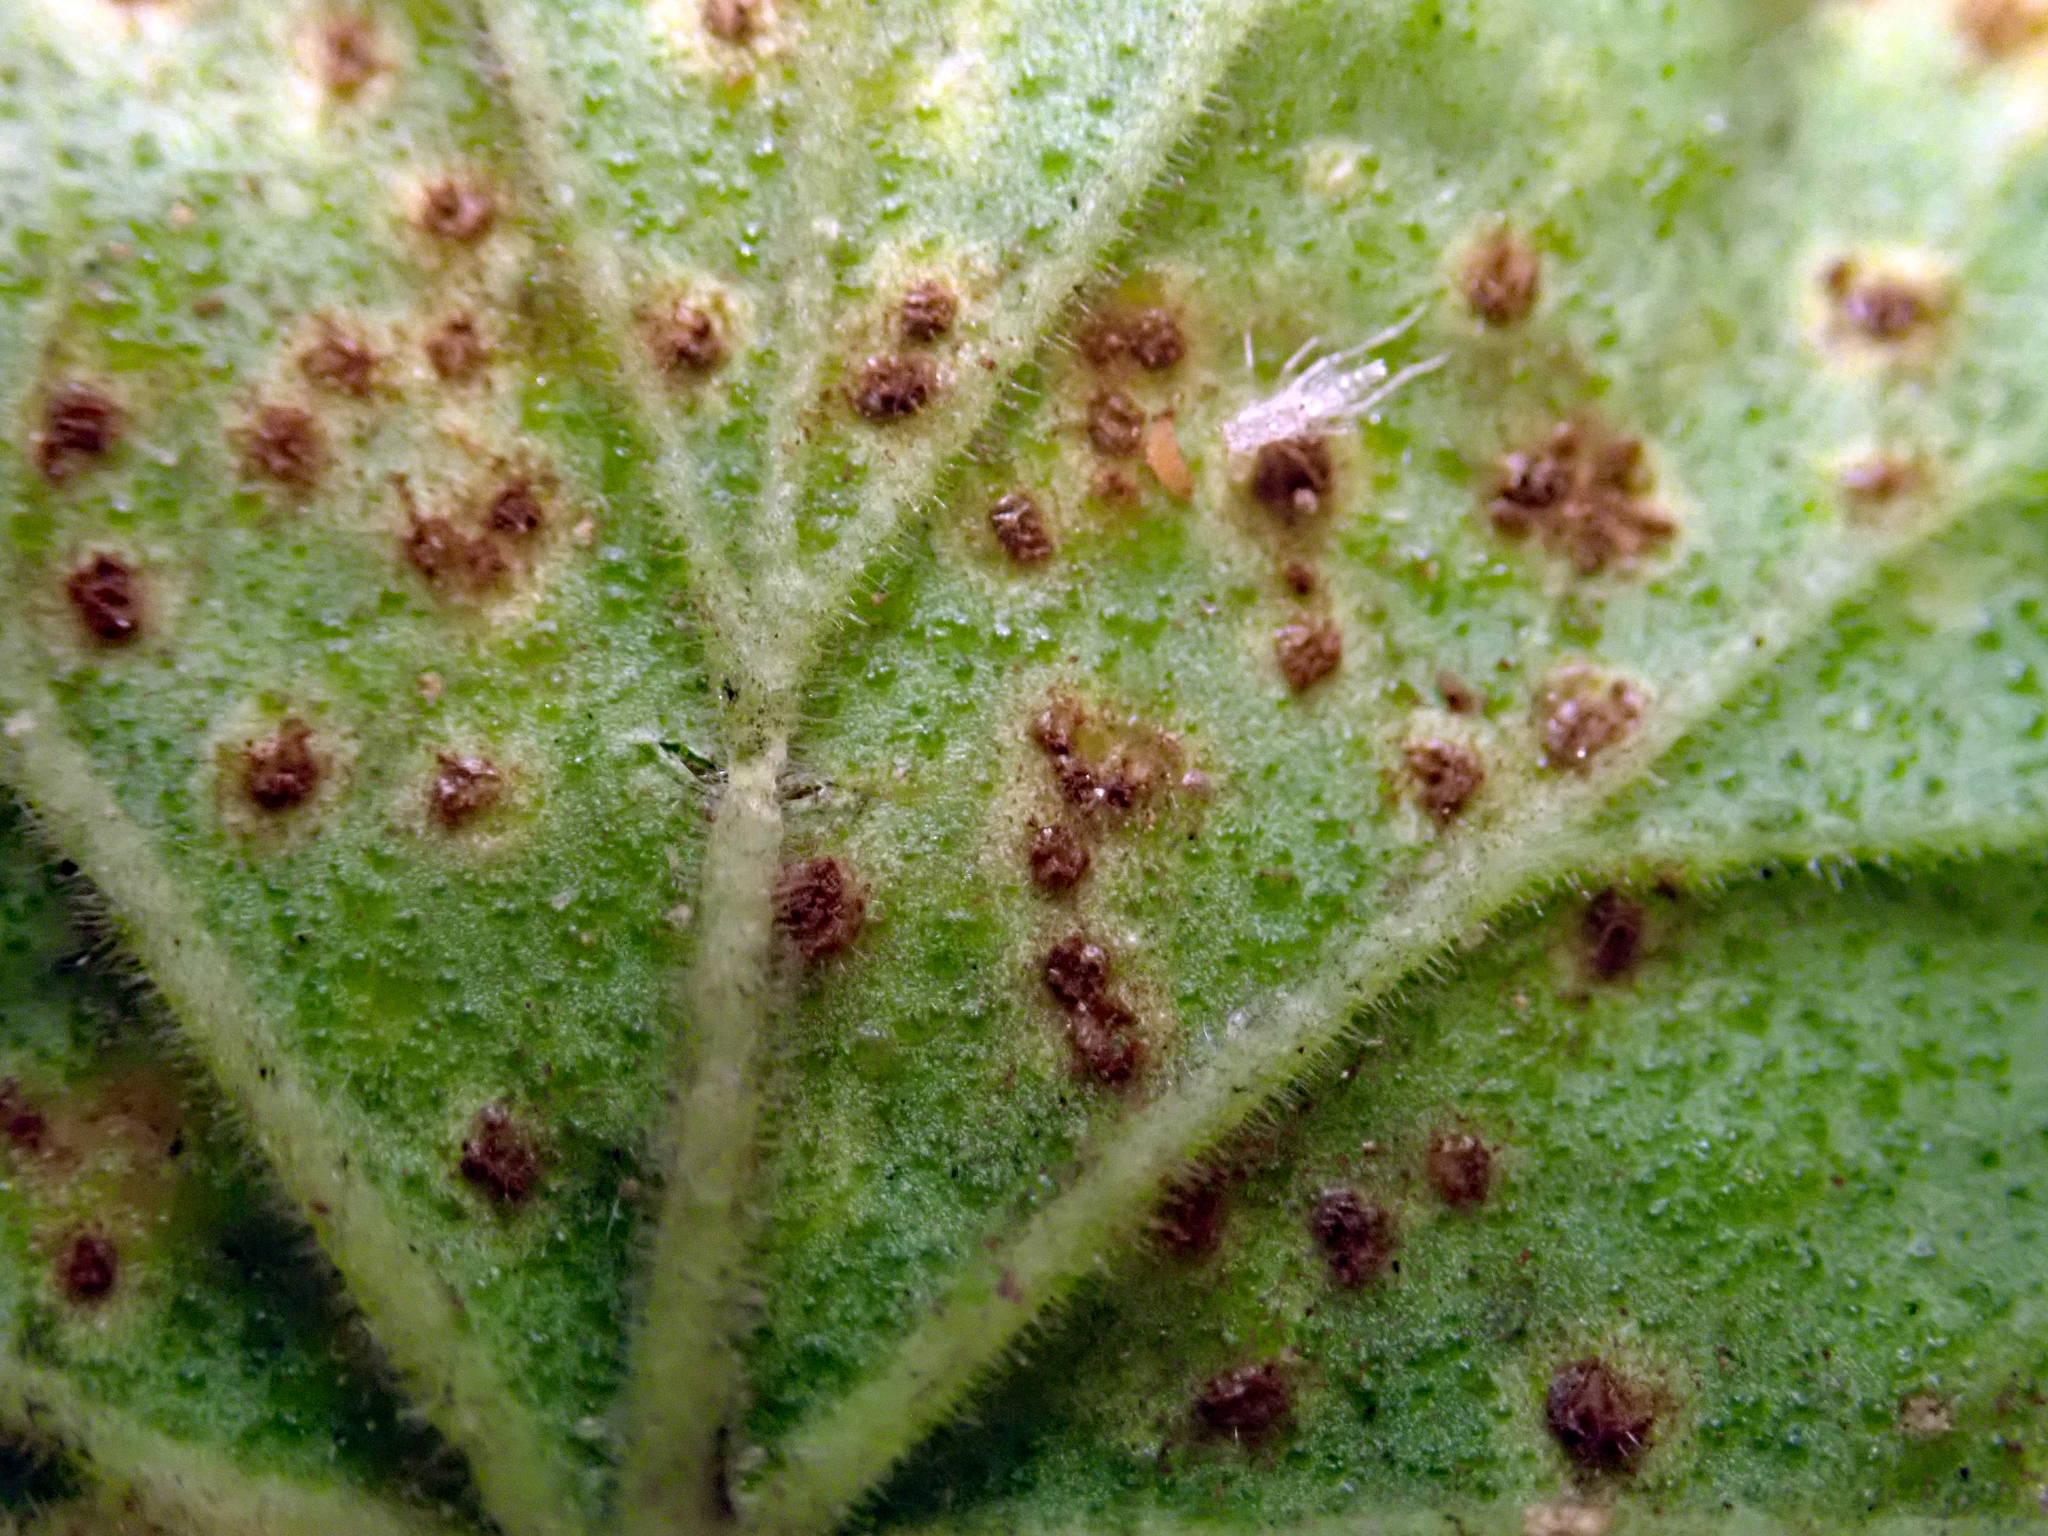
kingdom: Fungi
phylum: Basidiomycota
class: Pucciniomycetes
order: Pucciniales
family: Pucciniaceae
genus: Puccinia
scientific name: Puccinia pelargonii-zonalis
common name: Rust of pelargonium
